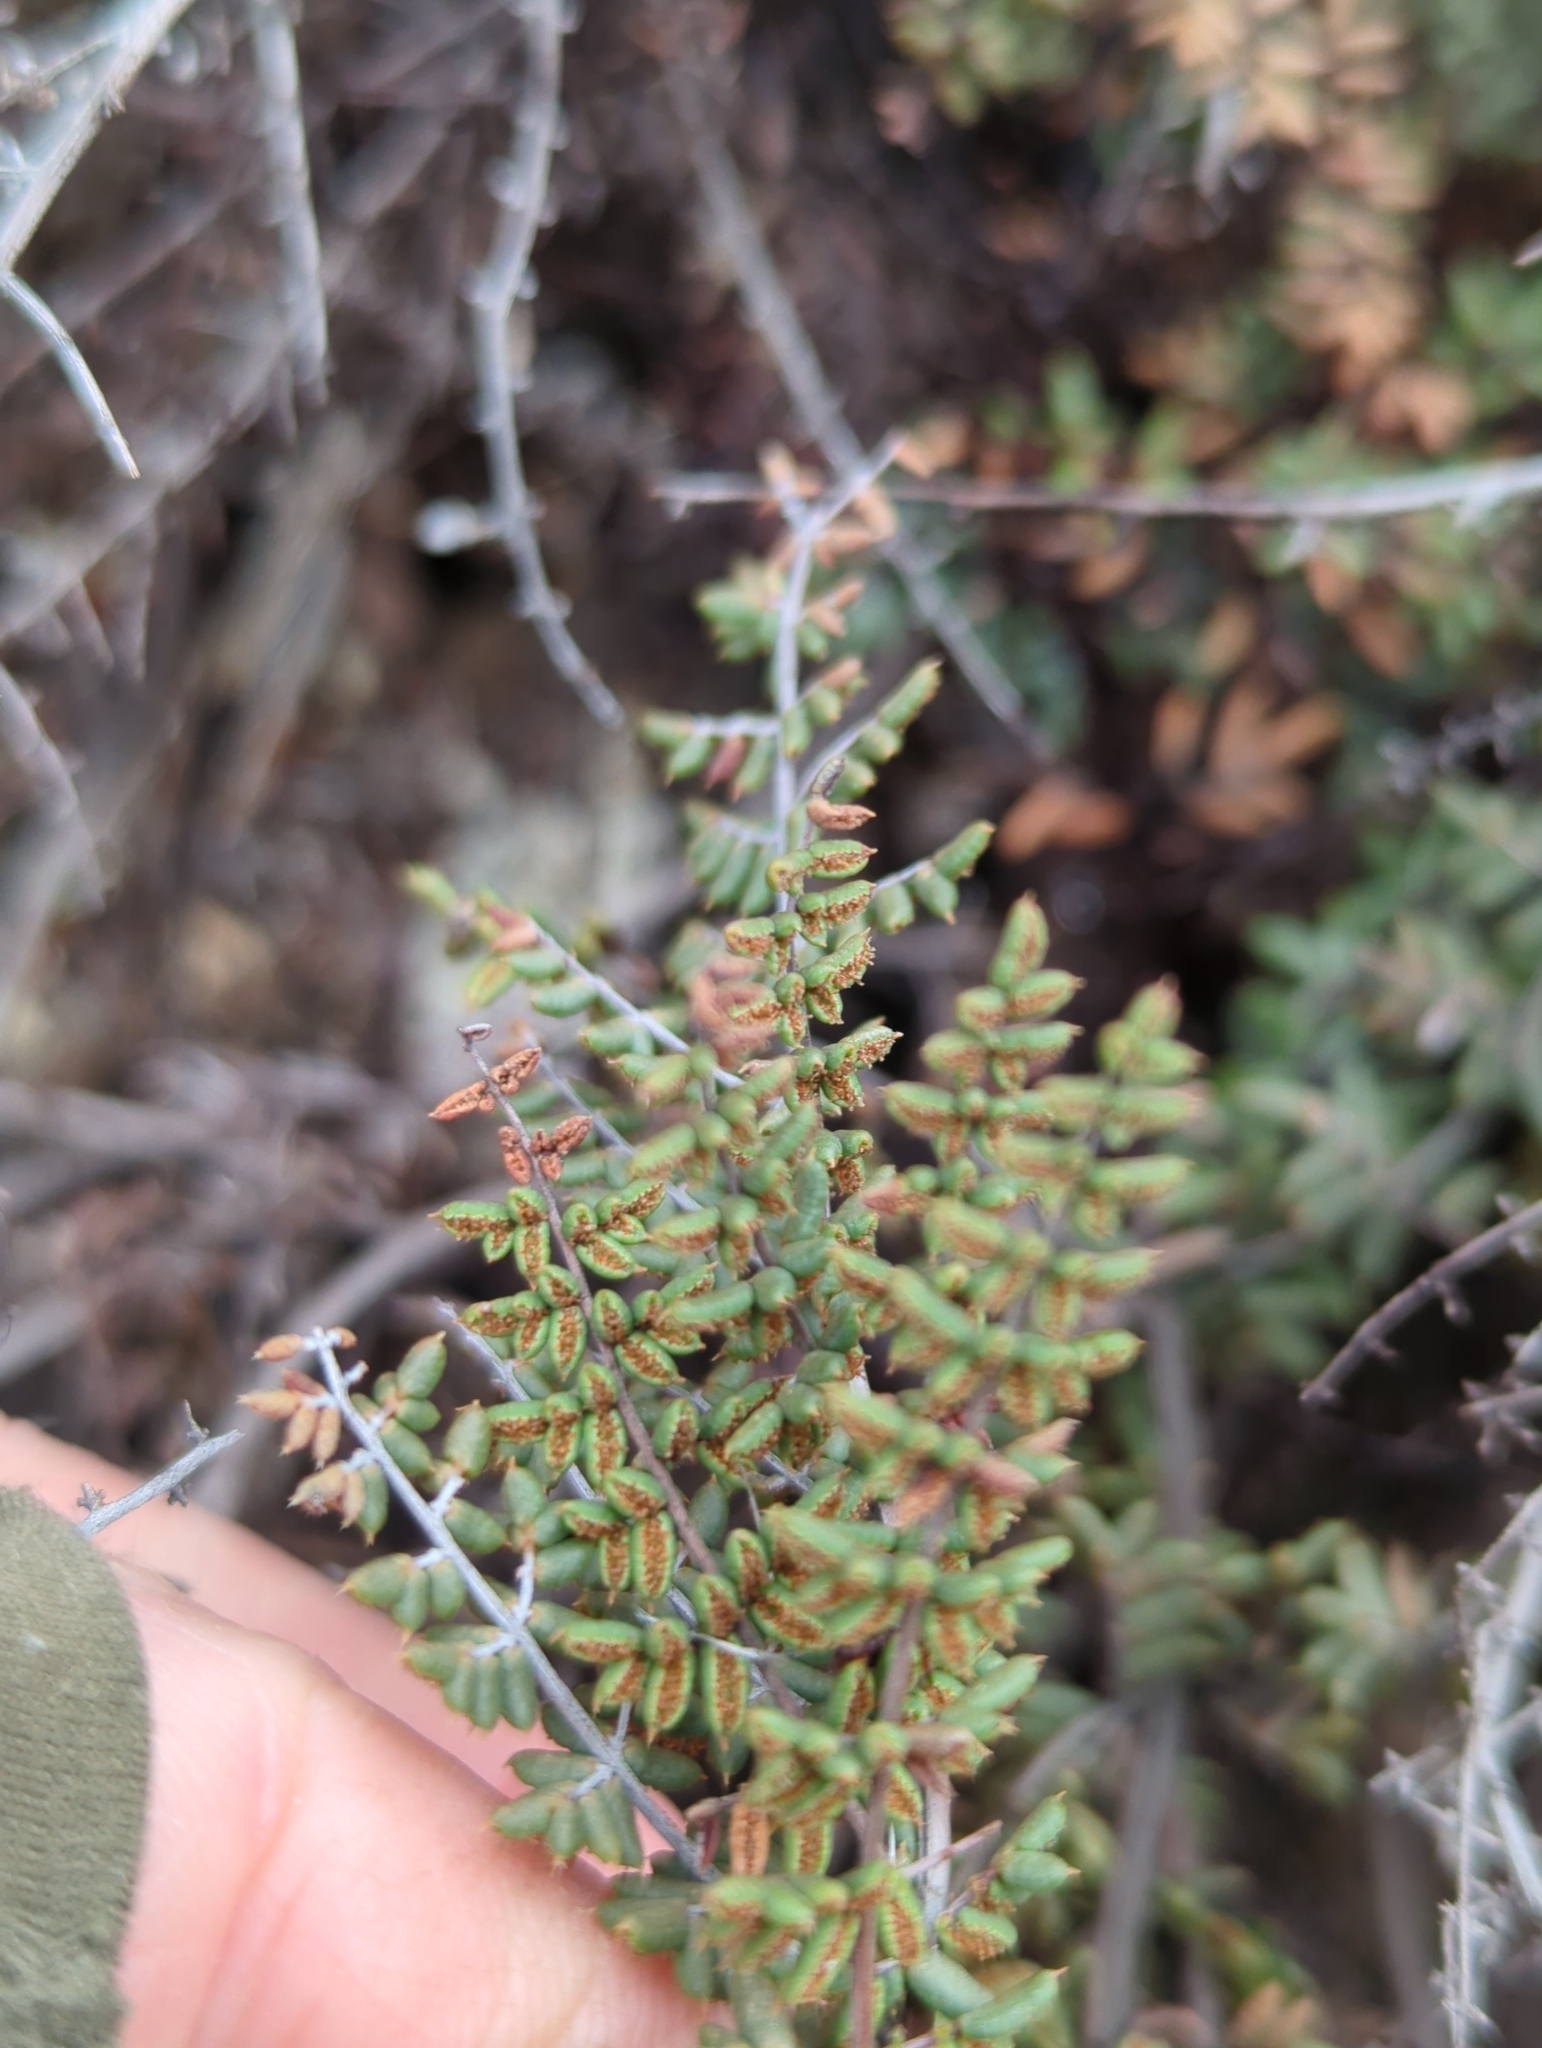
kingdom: Plantae
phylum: Tracheophyta
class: Polypodiopsida
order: Polypodiales
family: Pteridaceae
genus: Pellaea
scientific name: Pellaea mucronata
